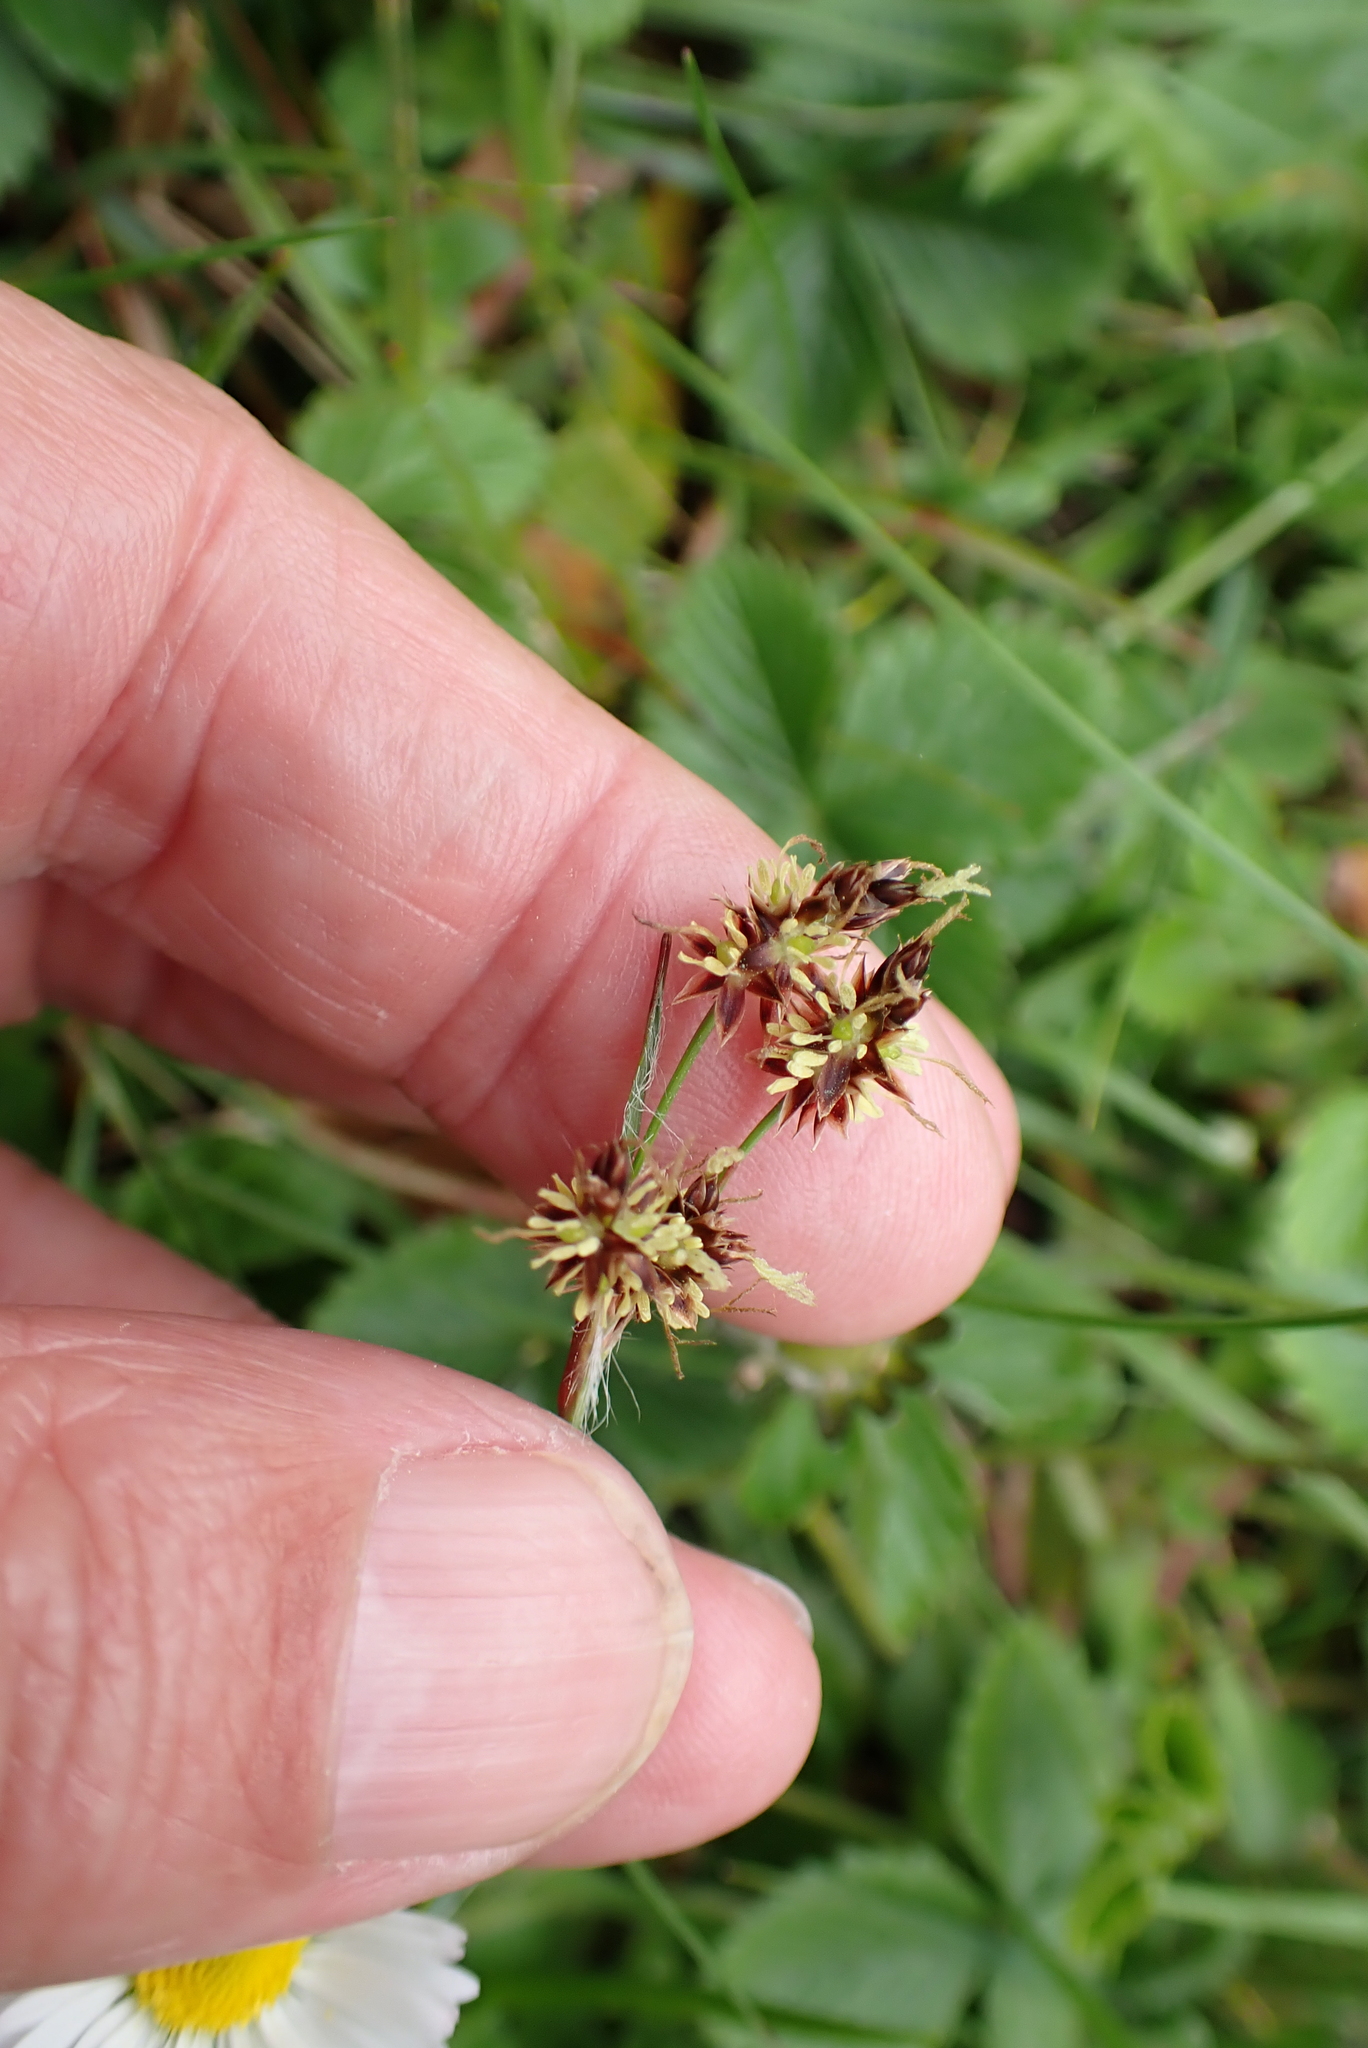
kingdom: Plantae
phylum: Tracheophyta
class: Liliopsida
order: Poales
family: Juncaceae
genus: Luzula
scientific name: Luzula campestris
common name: Field wood-rush
